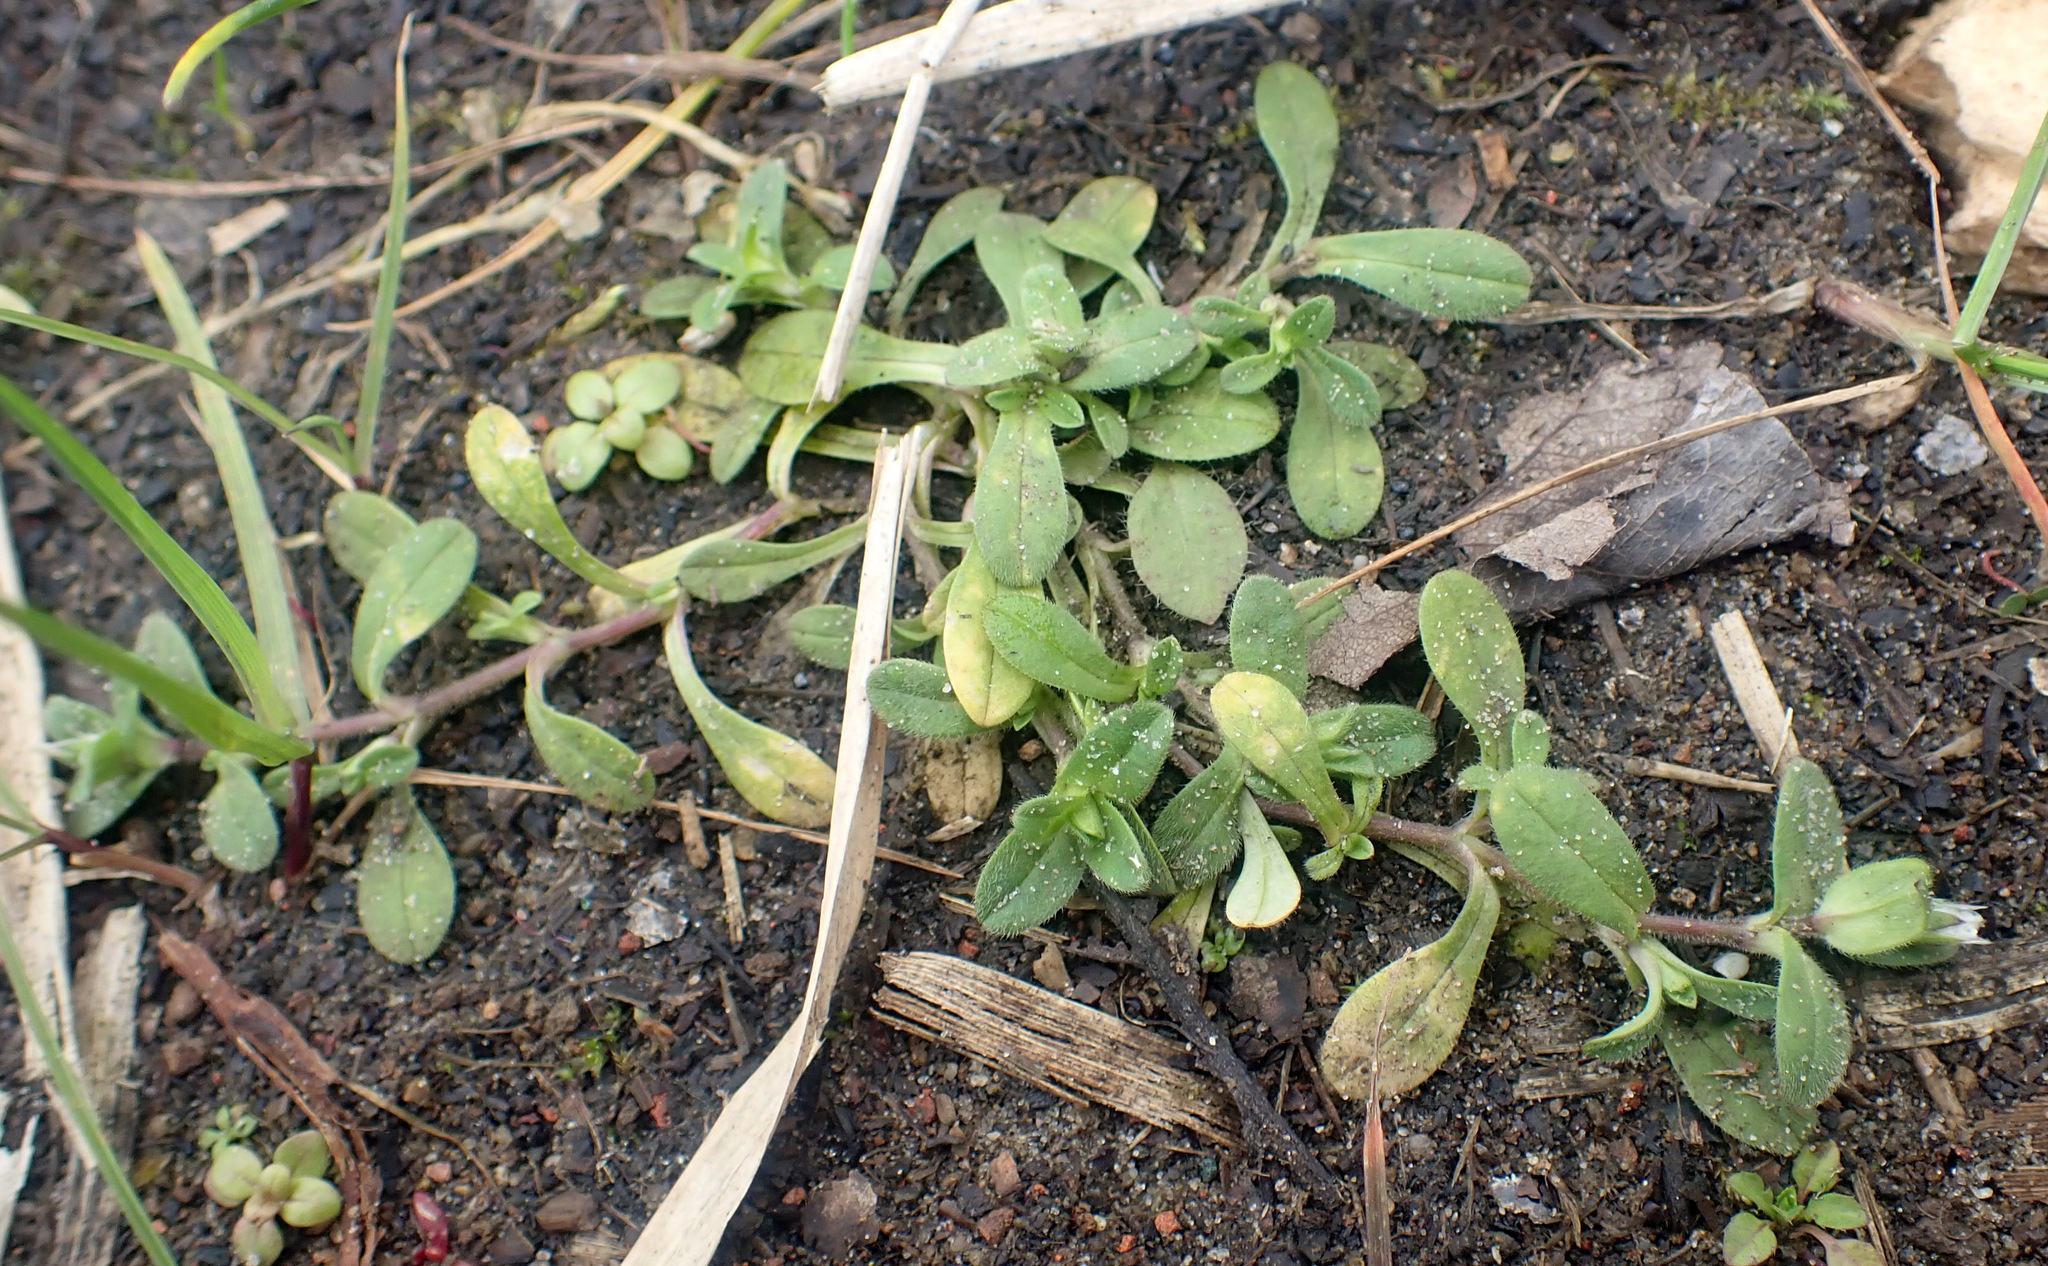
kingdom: Plantae
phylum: Tracheophyta
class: Magnoliopsida
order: Caryophyllales
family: Caryophyllaceae
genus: Cerastium
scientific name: Cerastium semidecandrum
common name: Little mouse-ear
